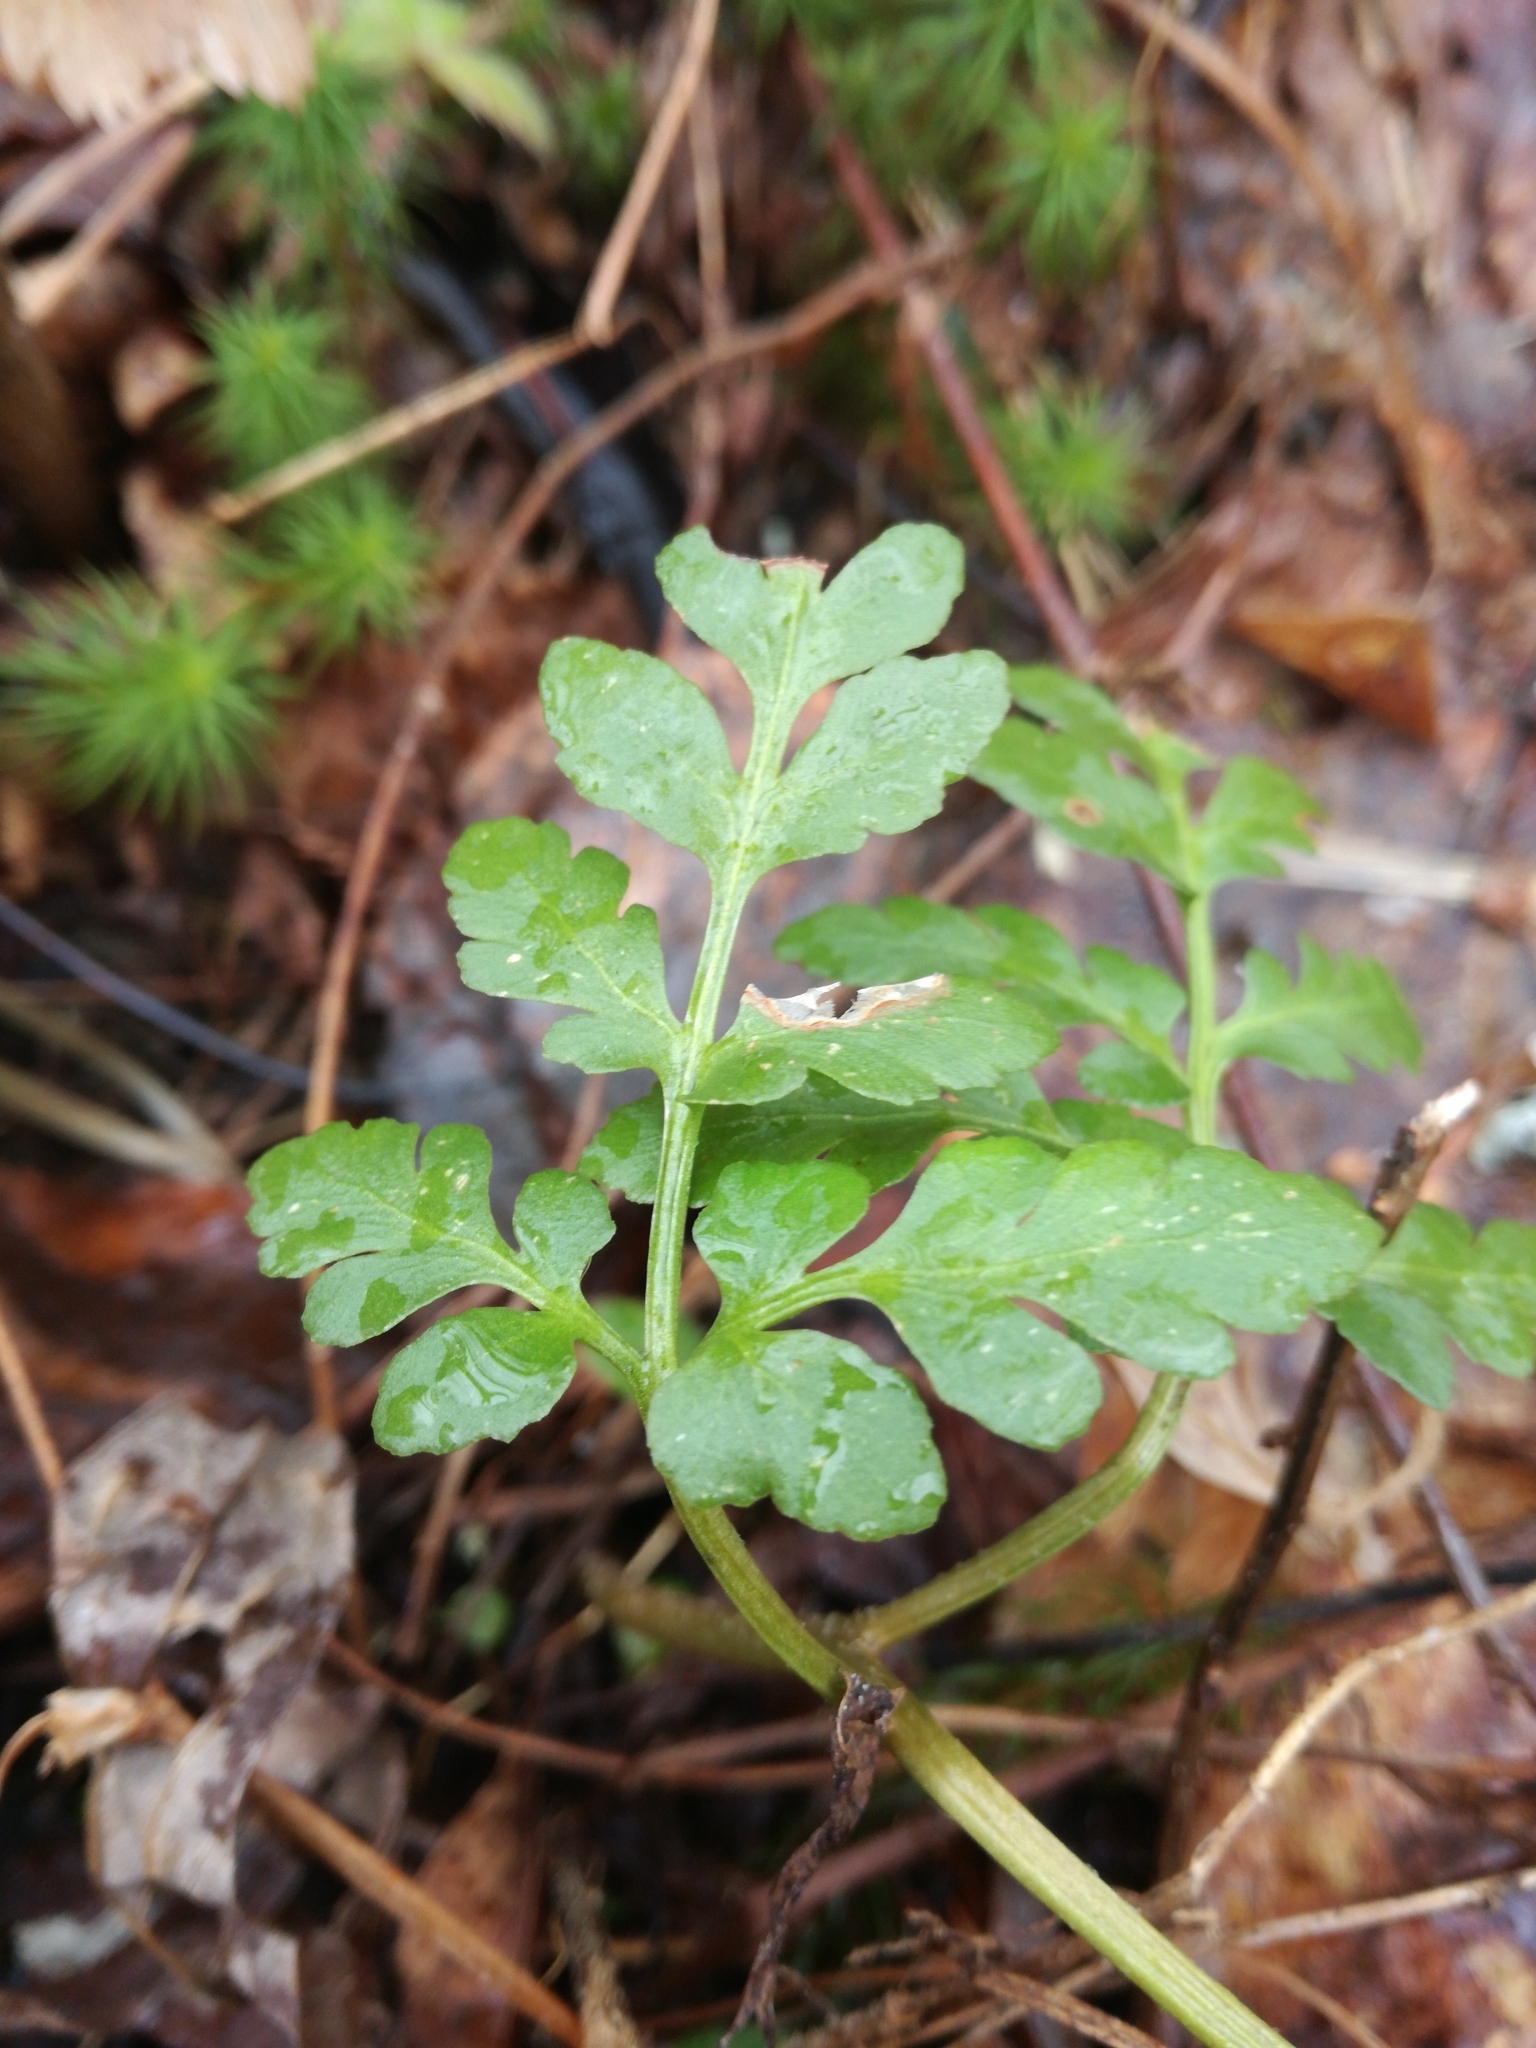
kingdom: Plantae
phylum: Tracheophyta
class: Polypodiopsida
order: Ophioglossales
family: Ophioglossaceae
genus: Sceptridium
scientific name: Sceptridium oneidense
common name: Blunt-lobed grapefern
